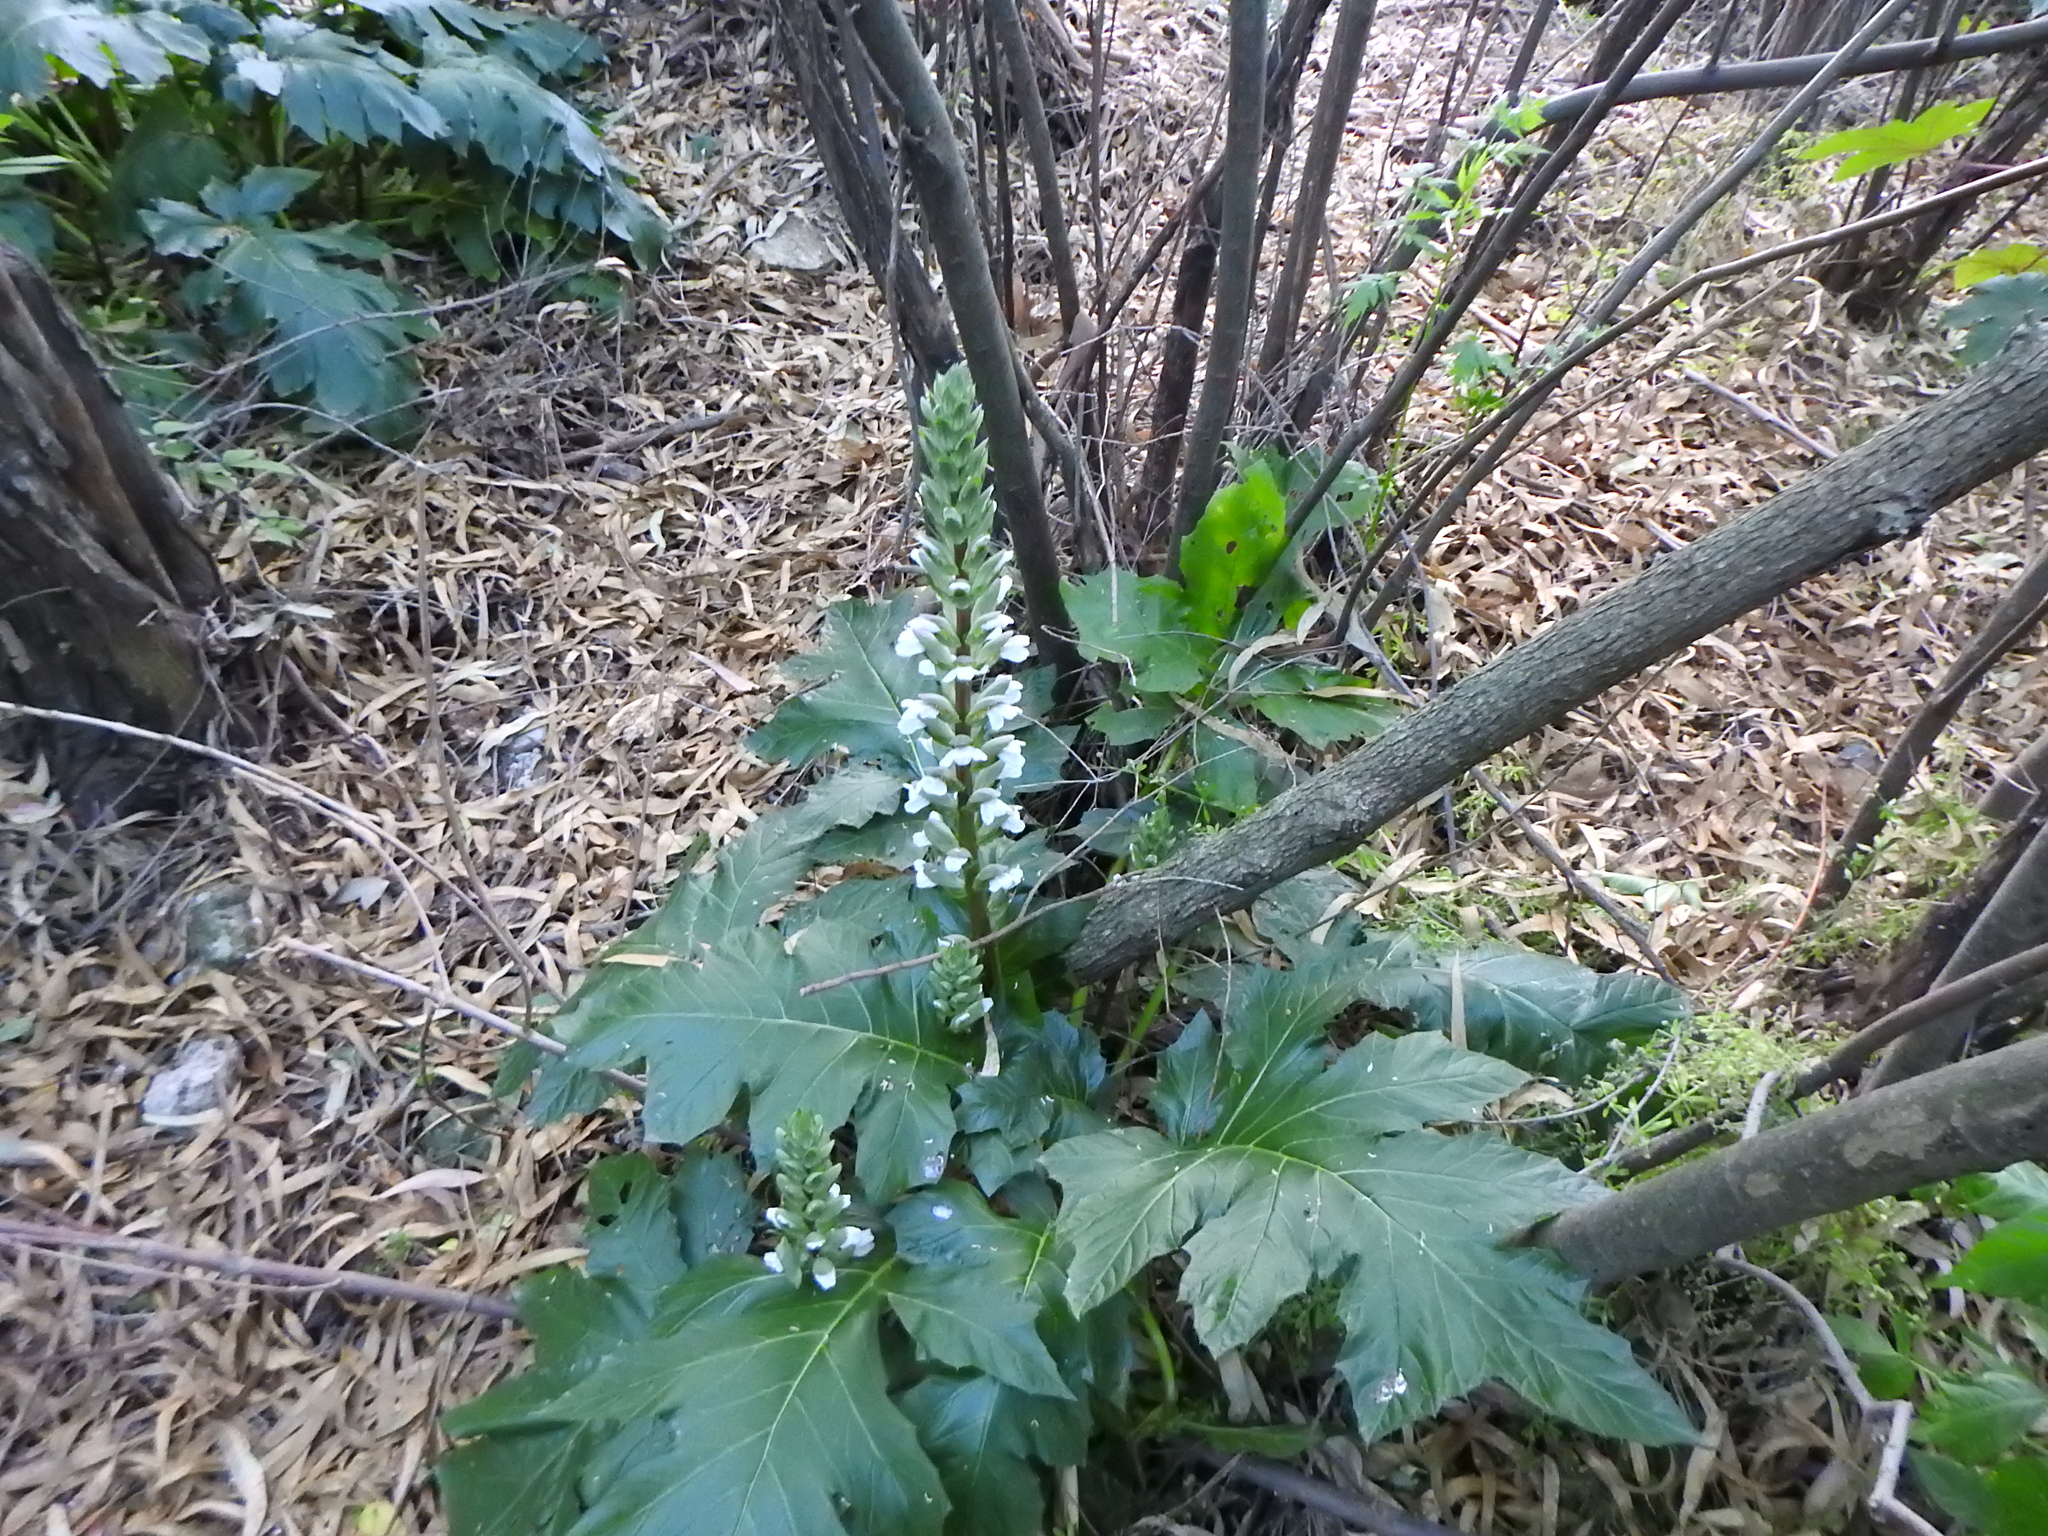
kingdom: Plantae
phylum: Tracheophyta
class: Magnoliopsida
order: Lamiales
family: Acanthaceae
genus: Acanthus
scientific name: Acanthus mollis
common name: Bear's-breech
